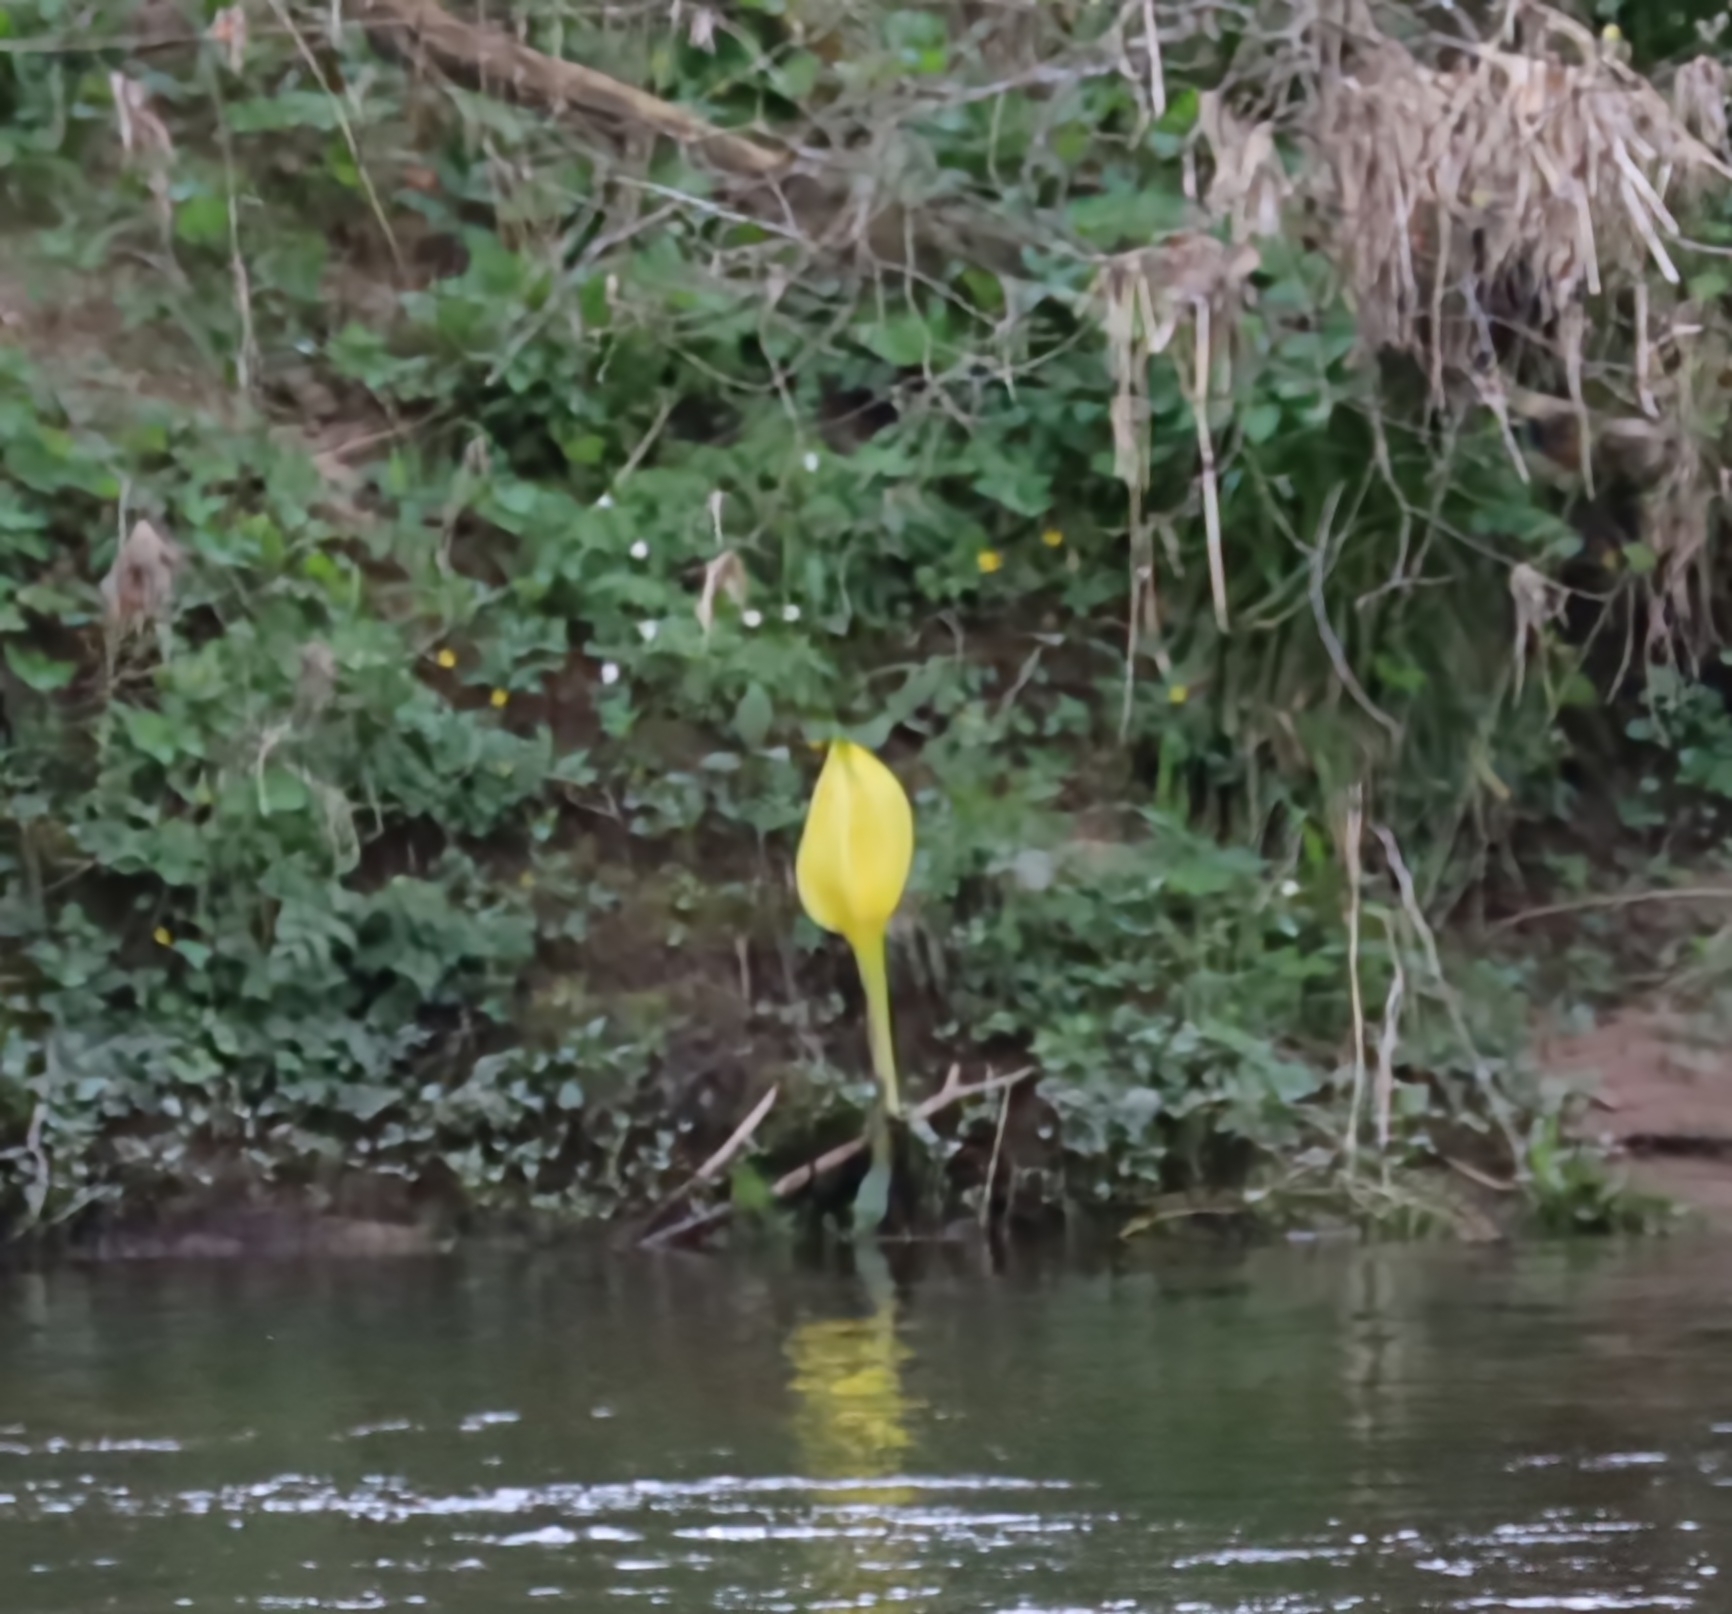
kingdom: Plantae
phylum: Tracheophyta
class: Liliopsida
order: Alismatales
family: Araceae
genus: Lysichiton
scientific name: Lysichiton americanus
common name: American skunk cabbage
